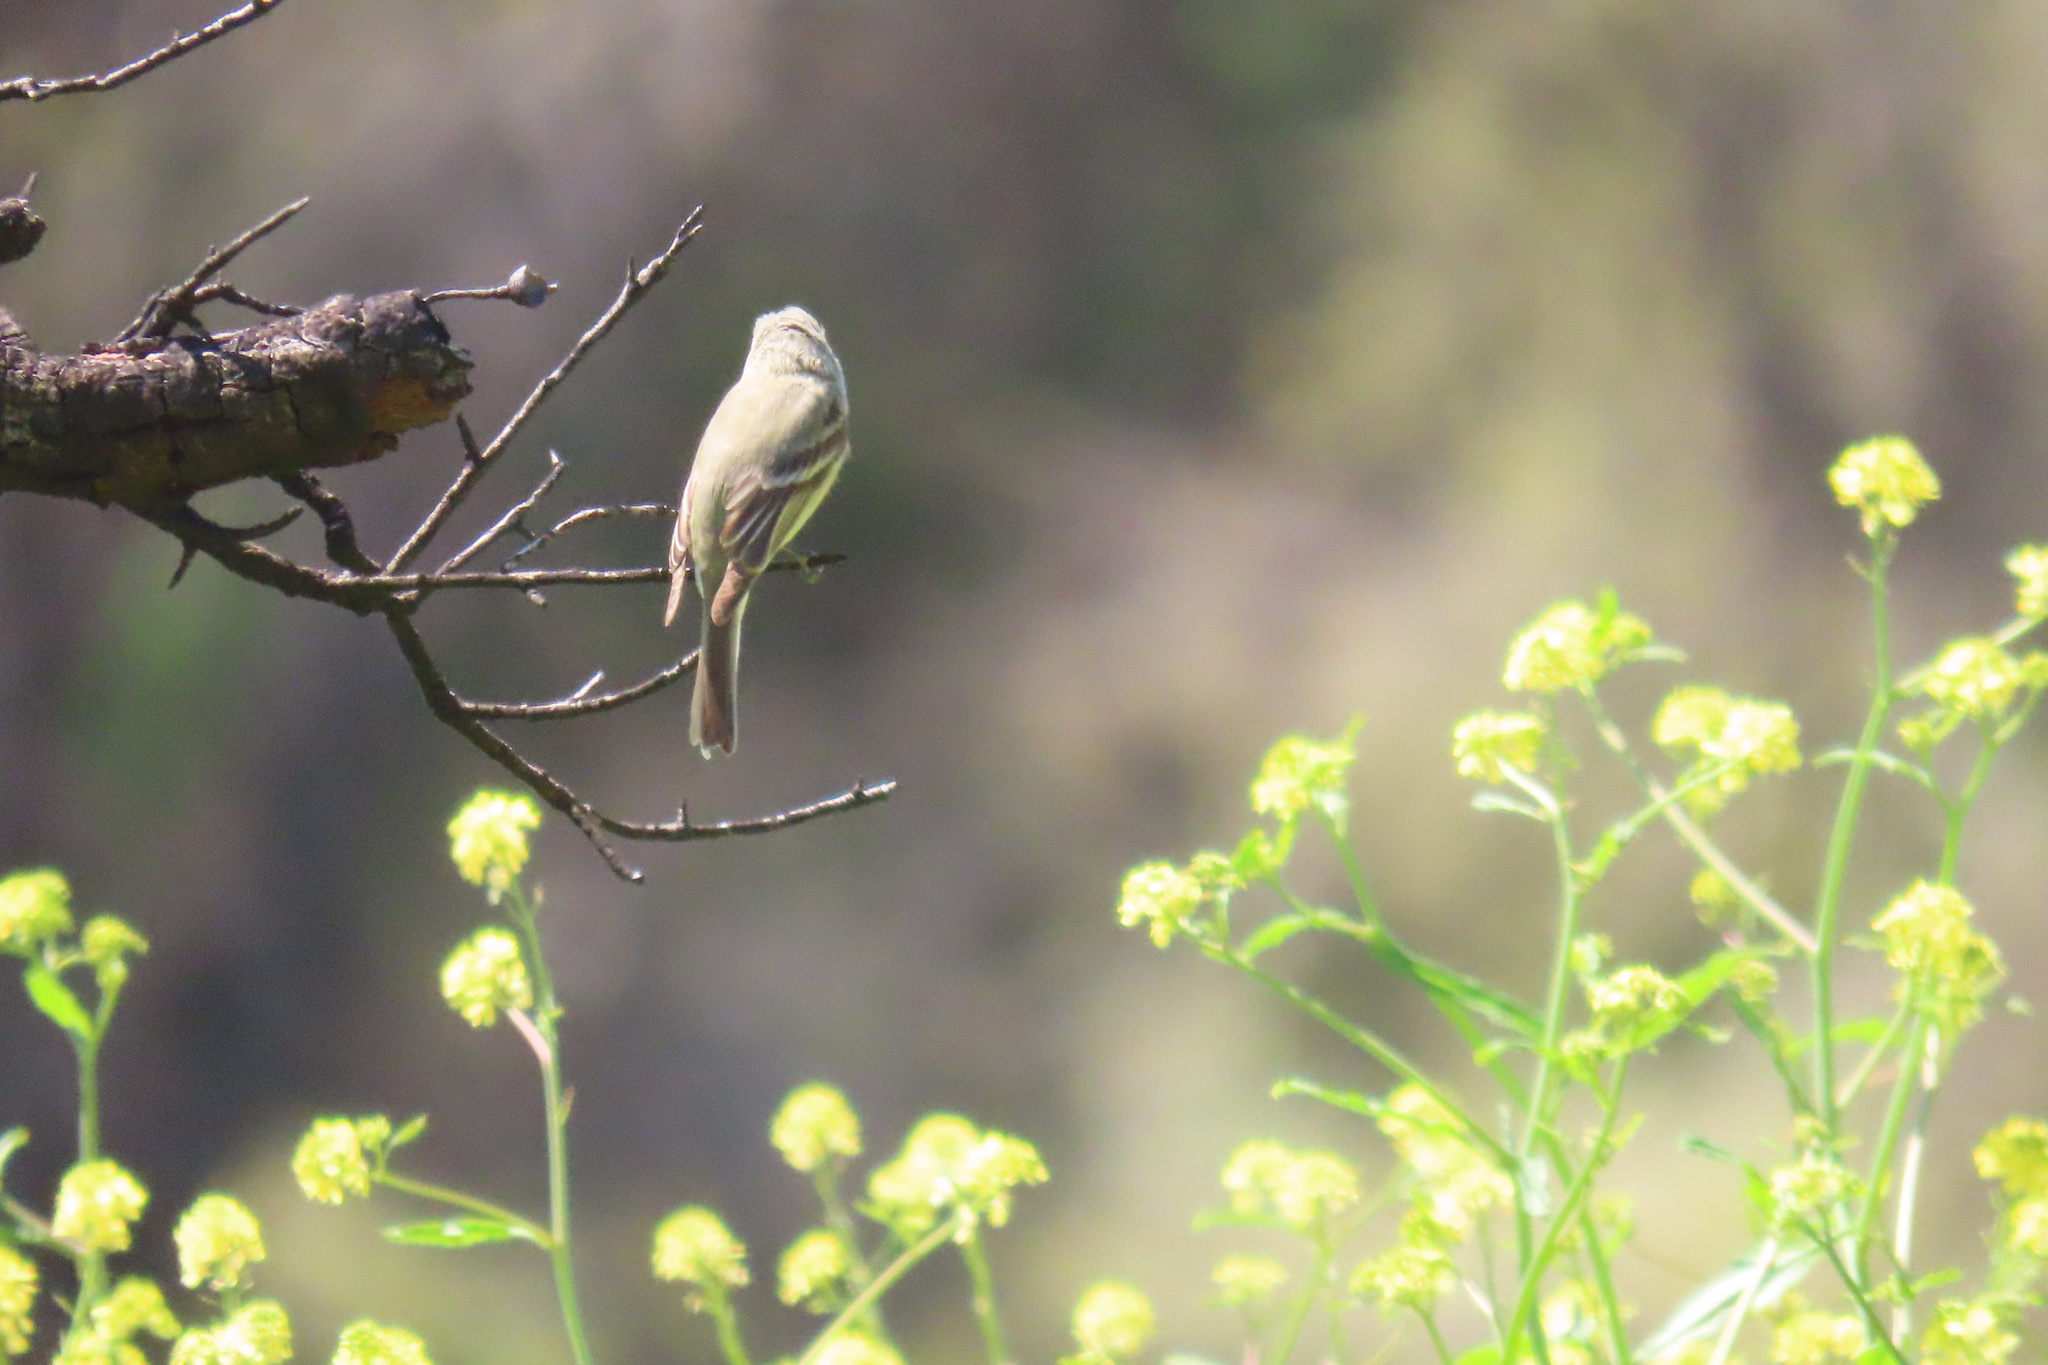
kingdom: Animalia
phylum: Chordata
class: Aves
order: Passeriformes
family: Tyrannidae
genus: Empidonax
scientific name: Empidonax hammondii
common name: Hammond's flycatcher
